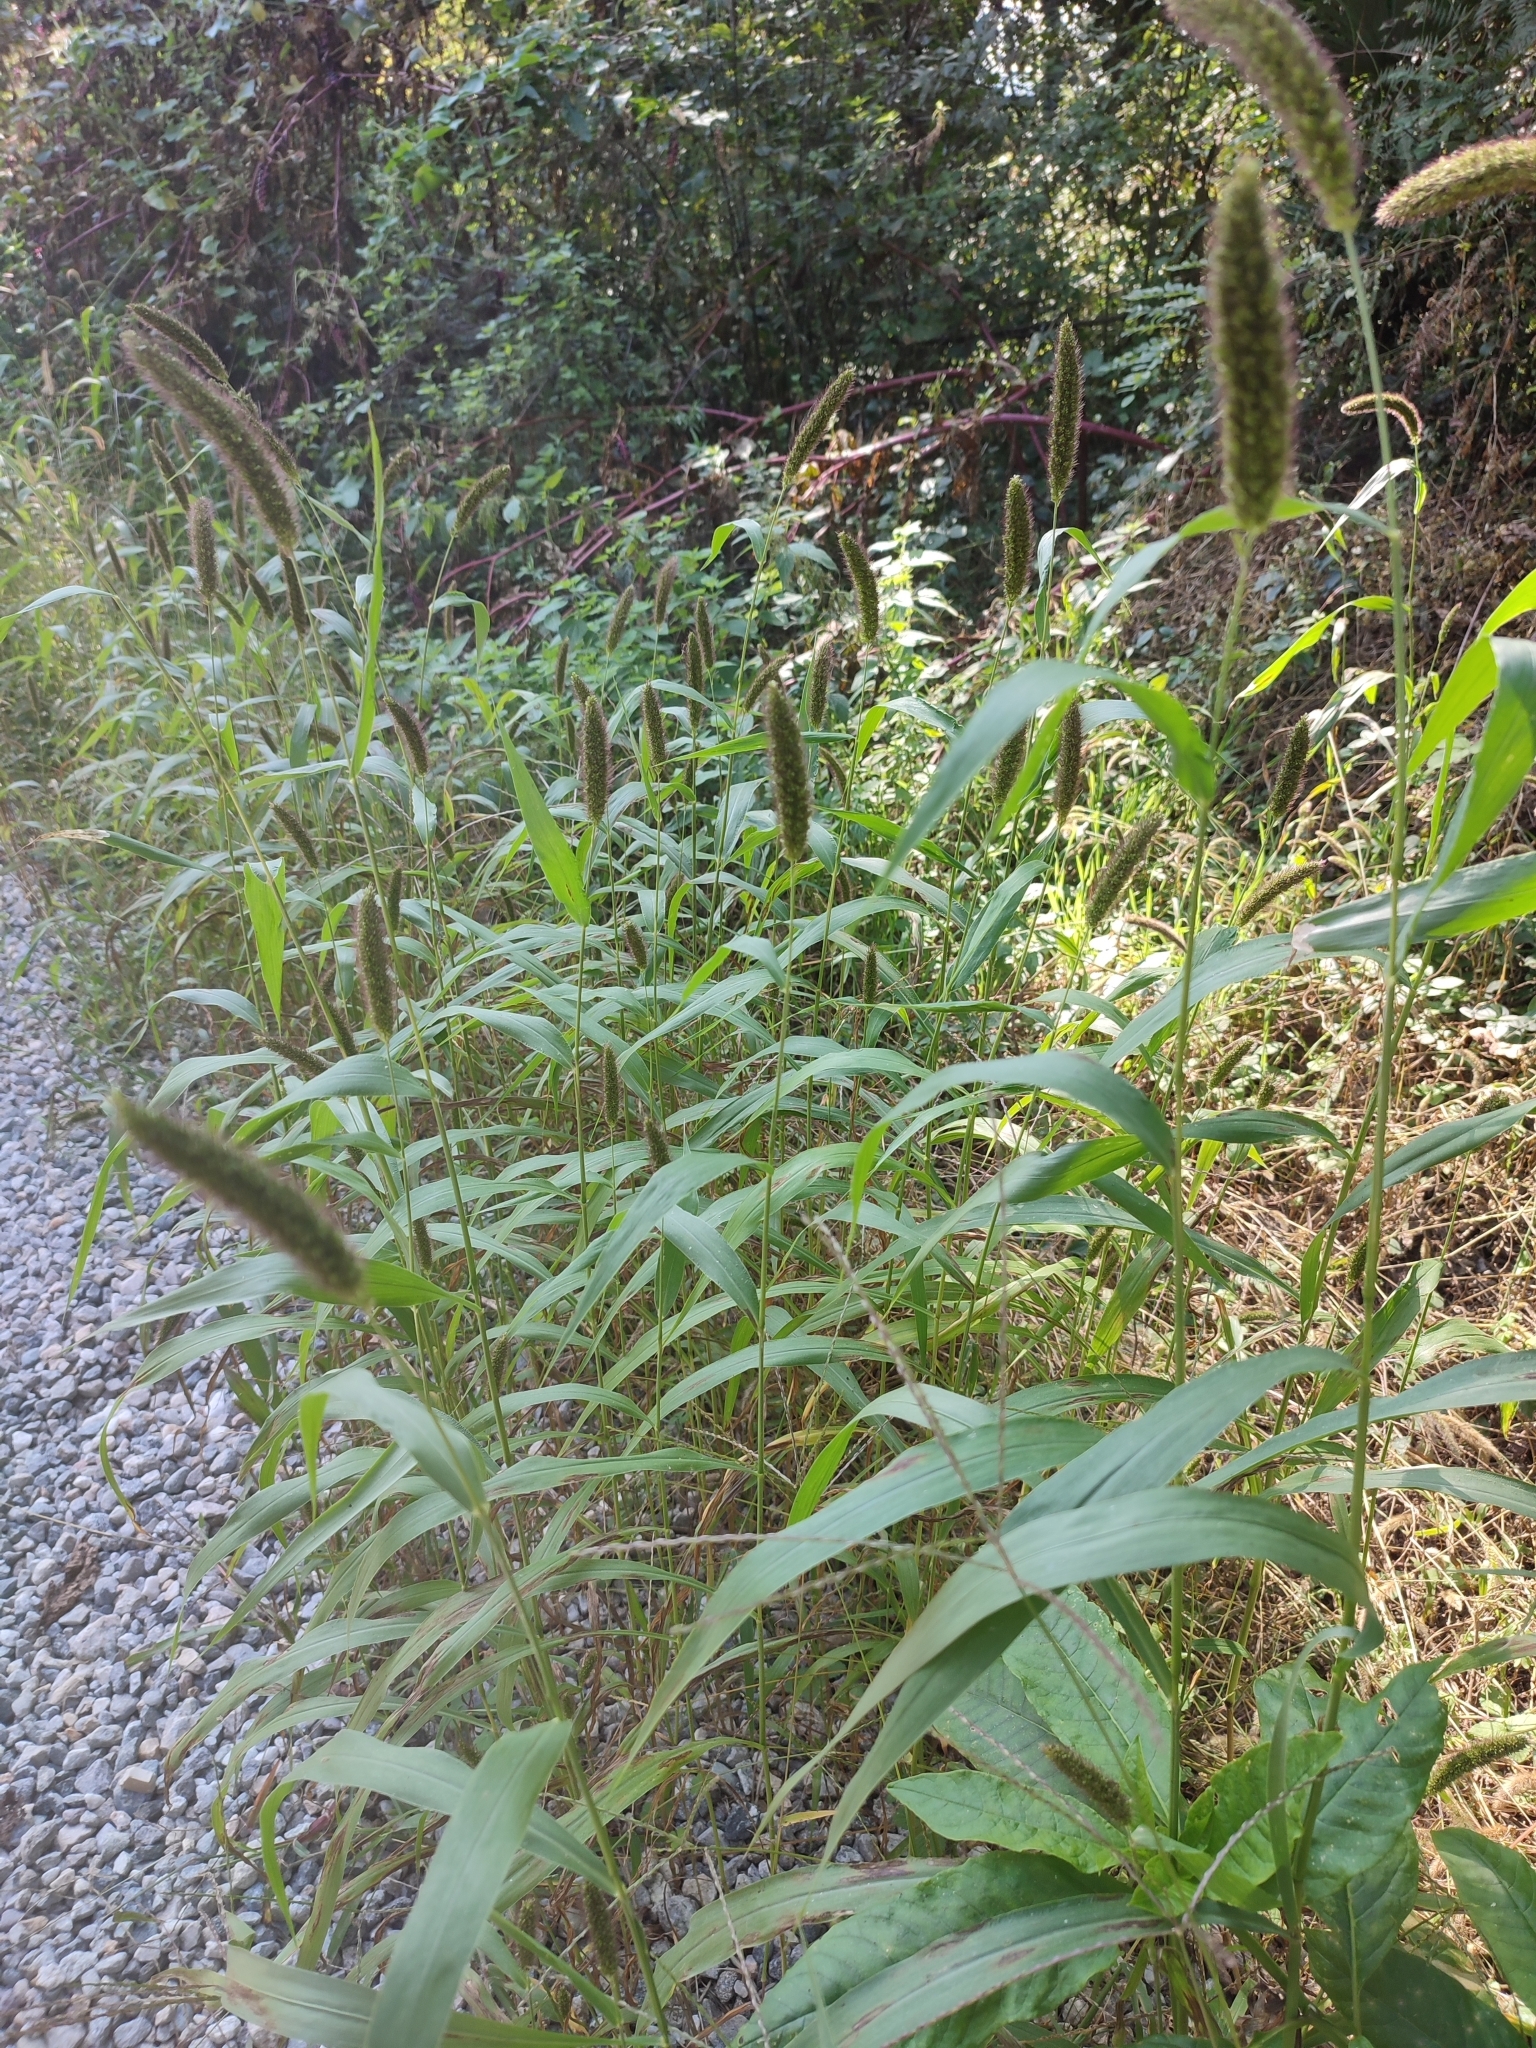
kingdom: Plantae
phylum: Tracheophyta
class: Liliopsida
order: Poales
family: Poaceae
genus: Setaria
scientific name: Setaria italica
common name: Foxtail bristle-grass
